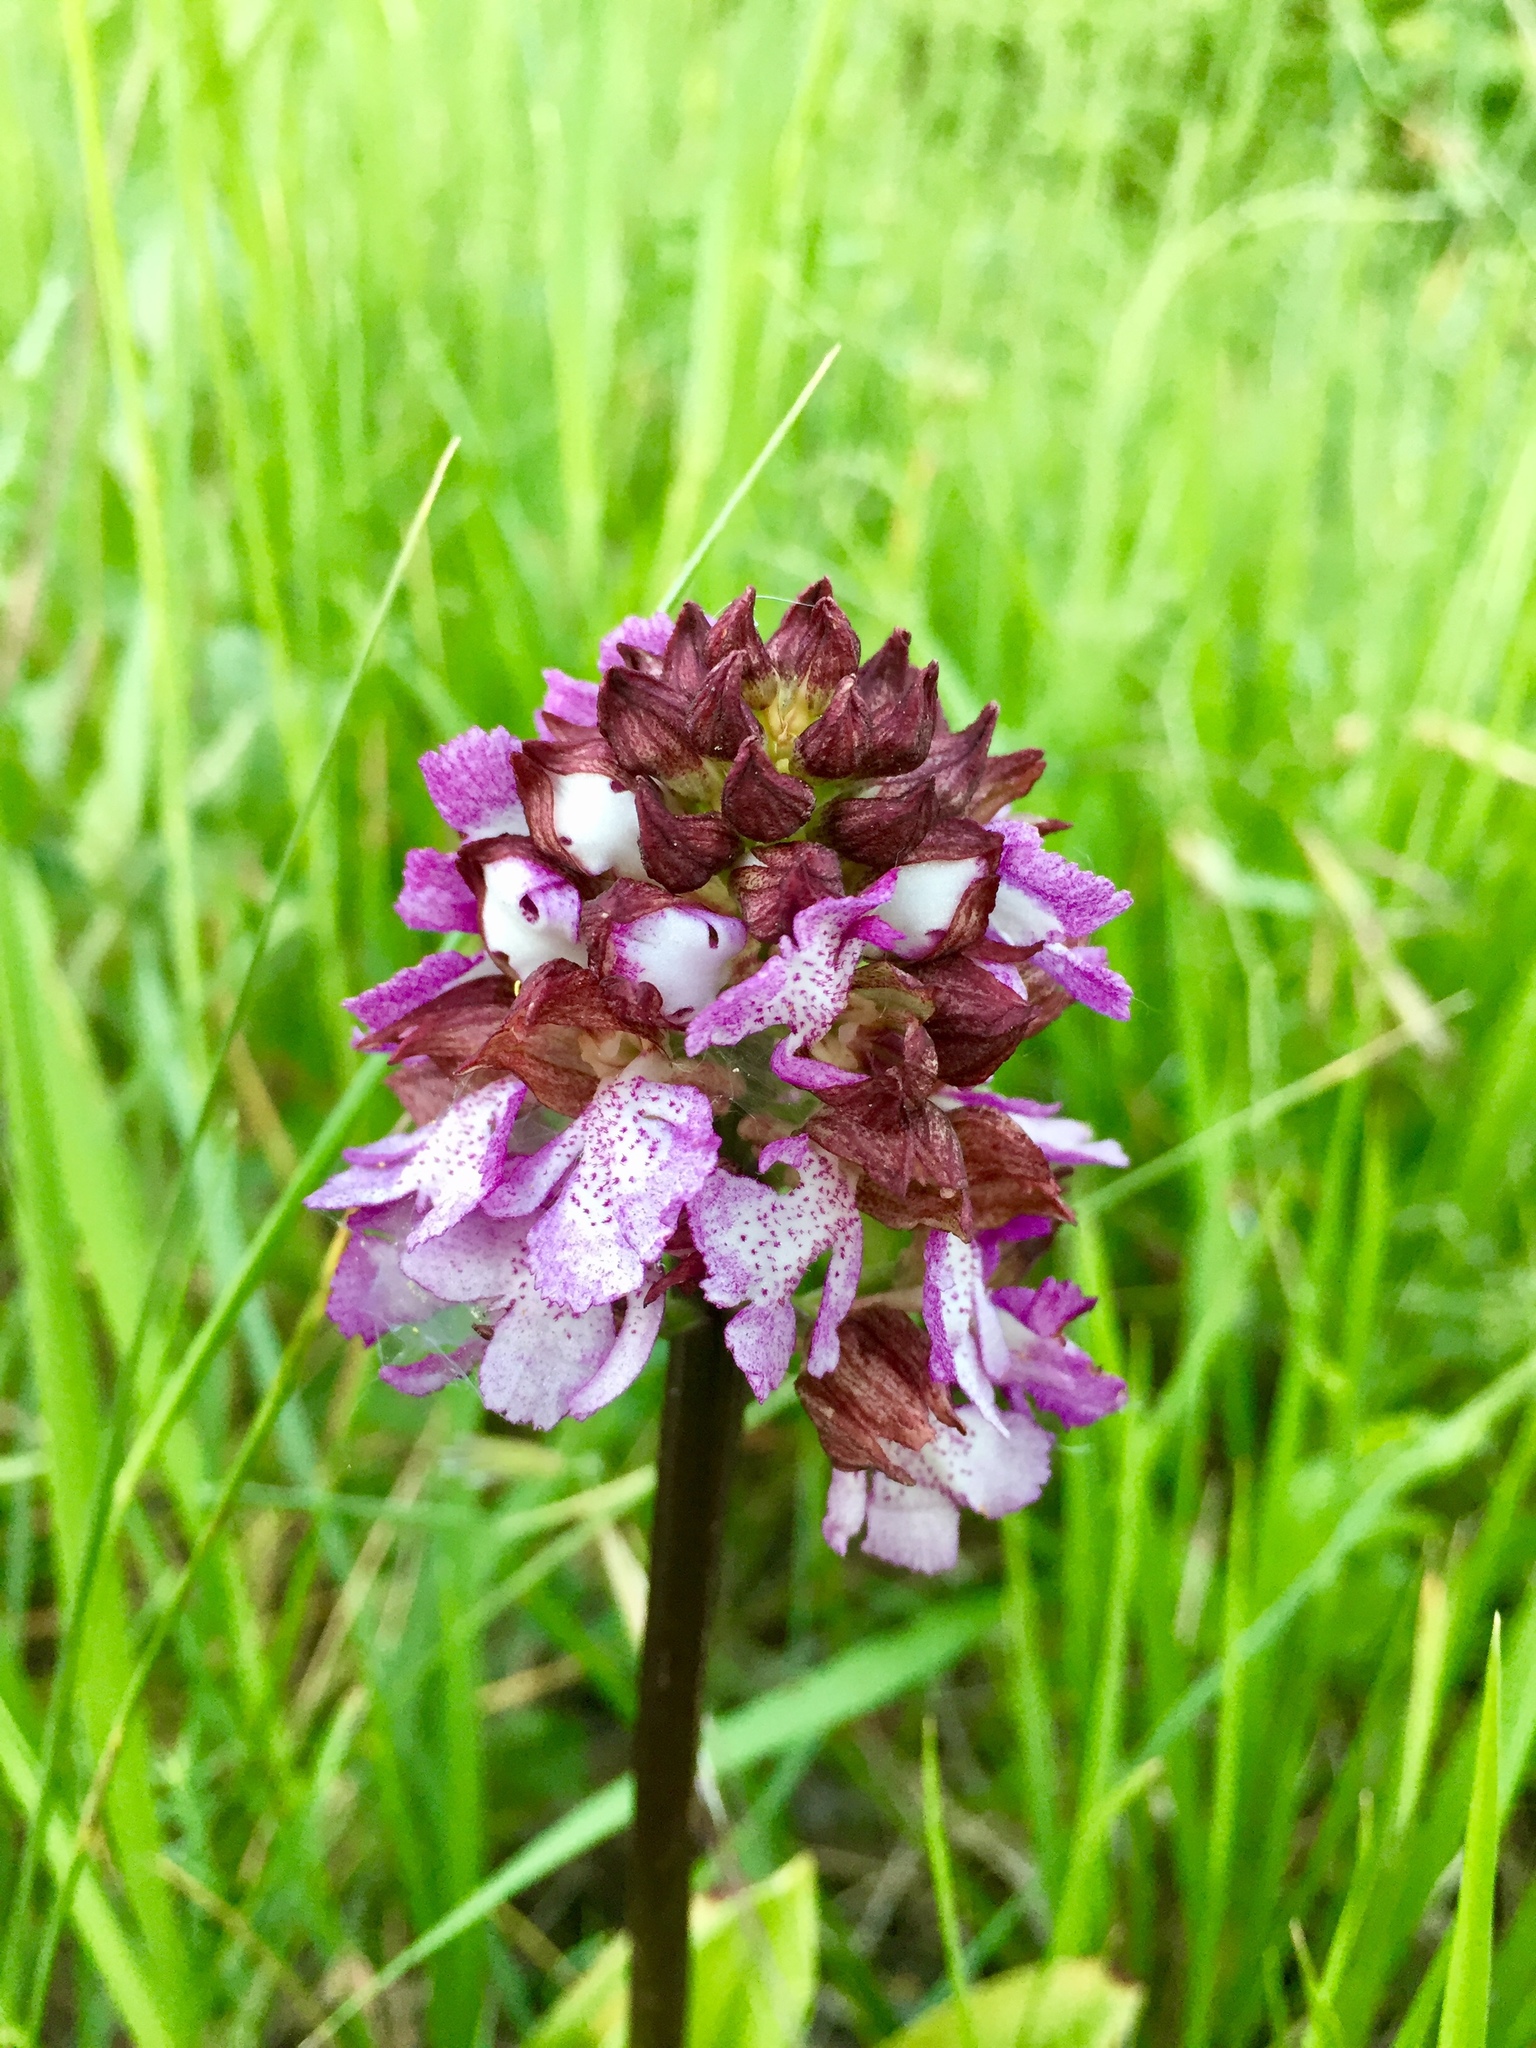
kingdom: Plantae
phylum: Tracheophyta
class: Liliopsida
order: Asparagales
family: Orchidaceae
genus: Orchis
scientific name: Orchis purpurea
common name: Lady orchid
